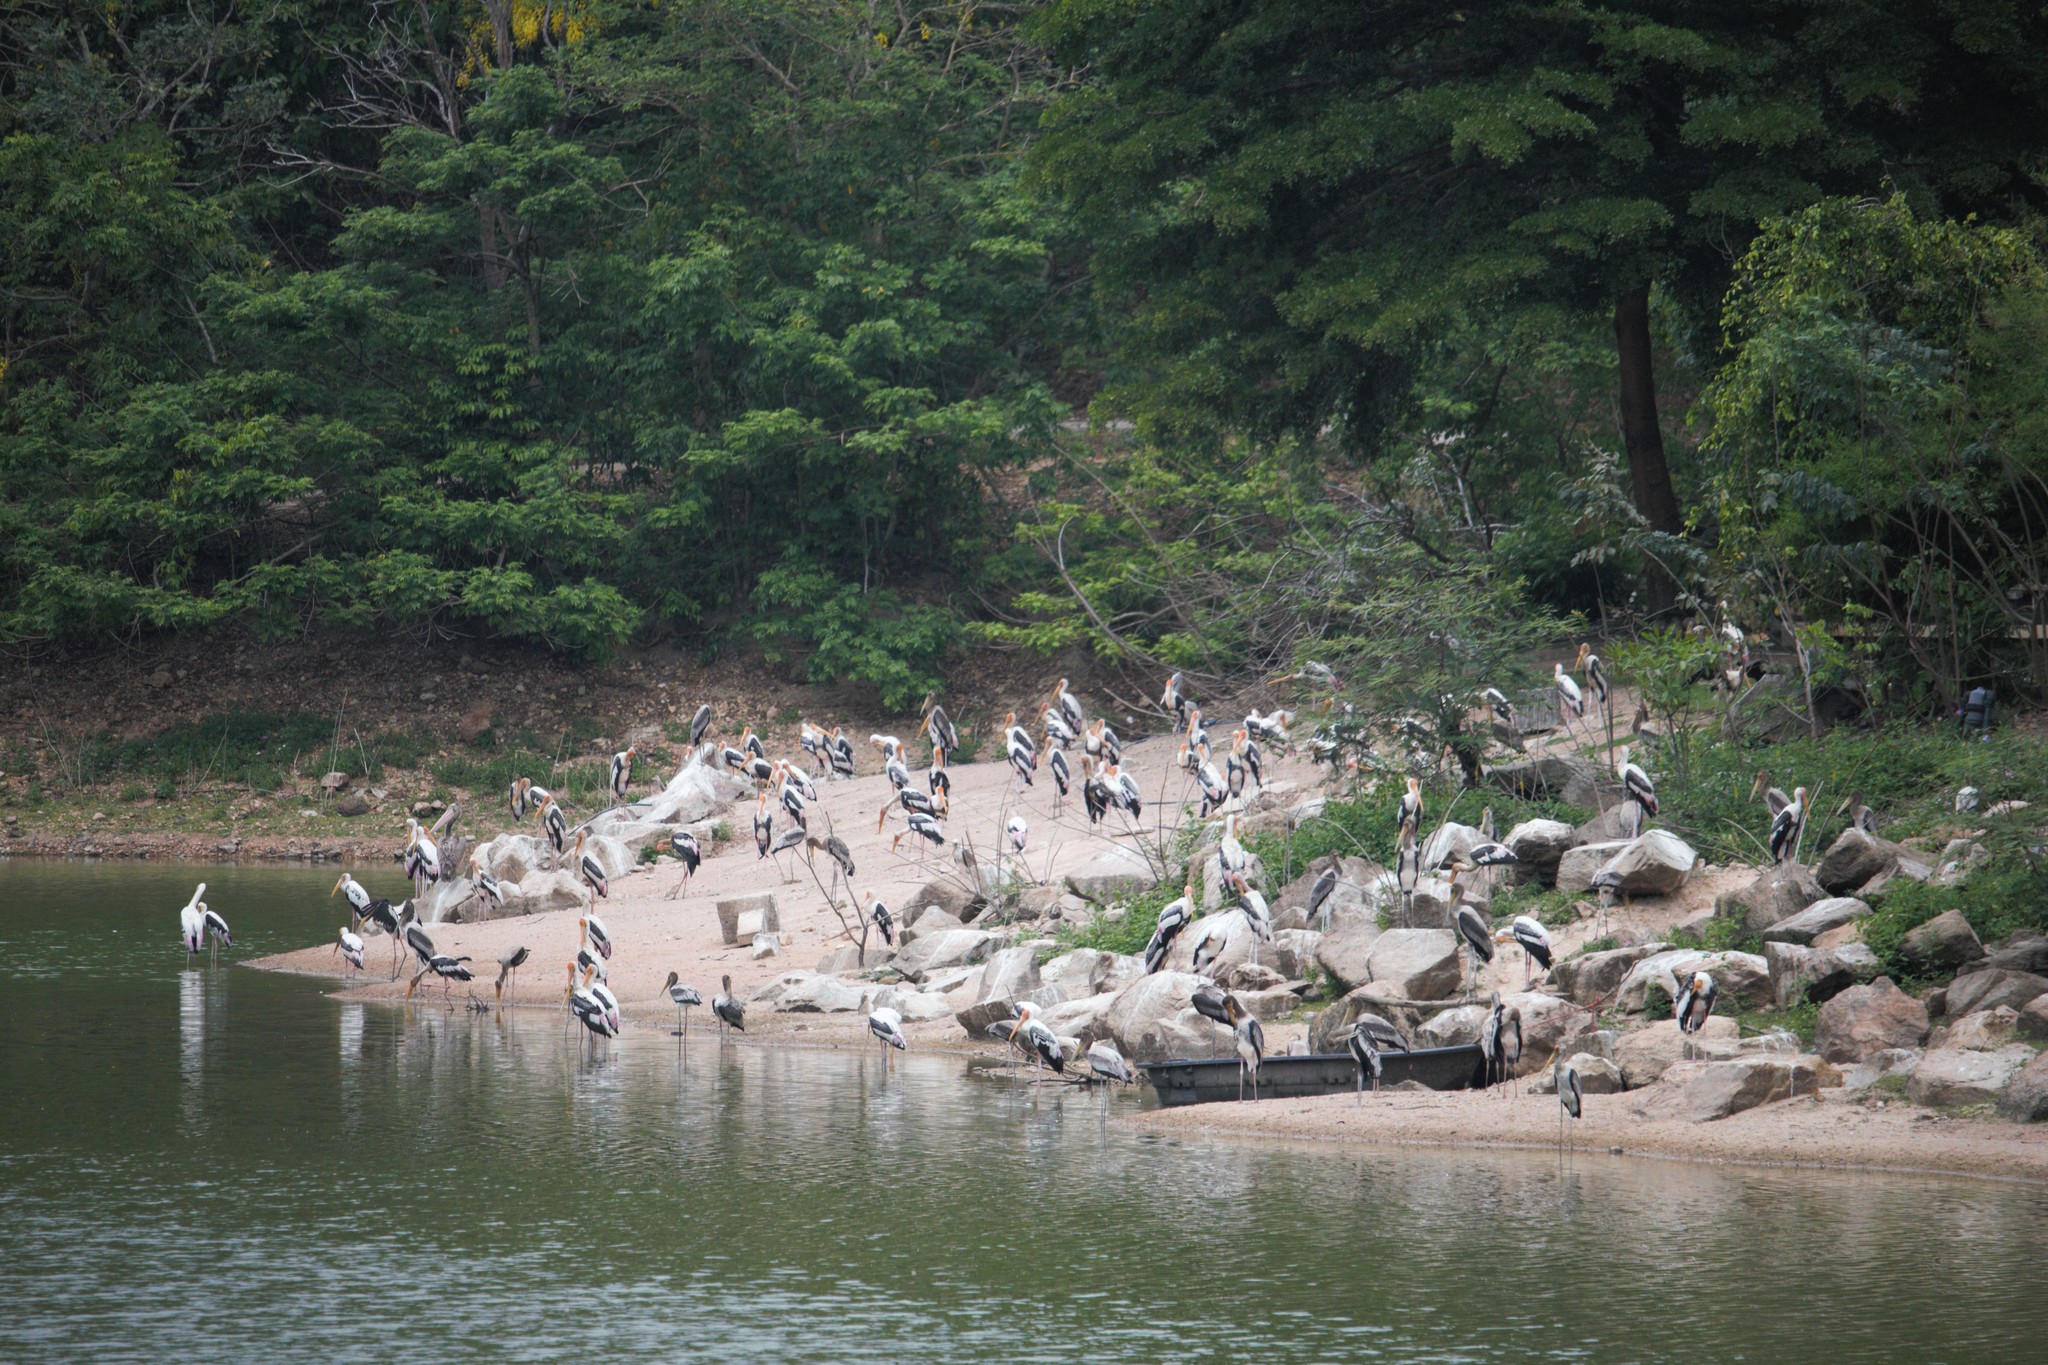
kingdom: Animalia
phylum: Chordata
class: Aves
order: Ciconiiformes
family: Ciconiidae
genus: Mycteria
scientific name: Mycteria leucocephala
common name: Painted stork
